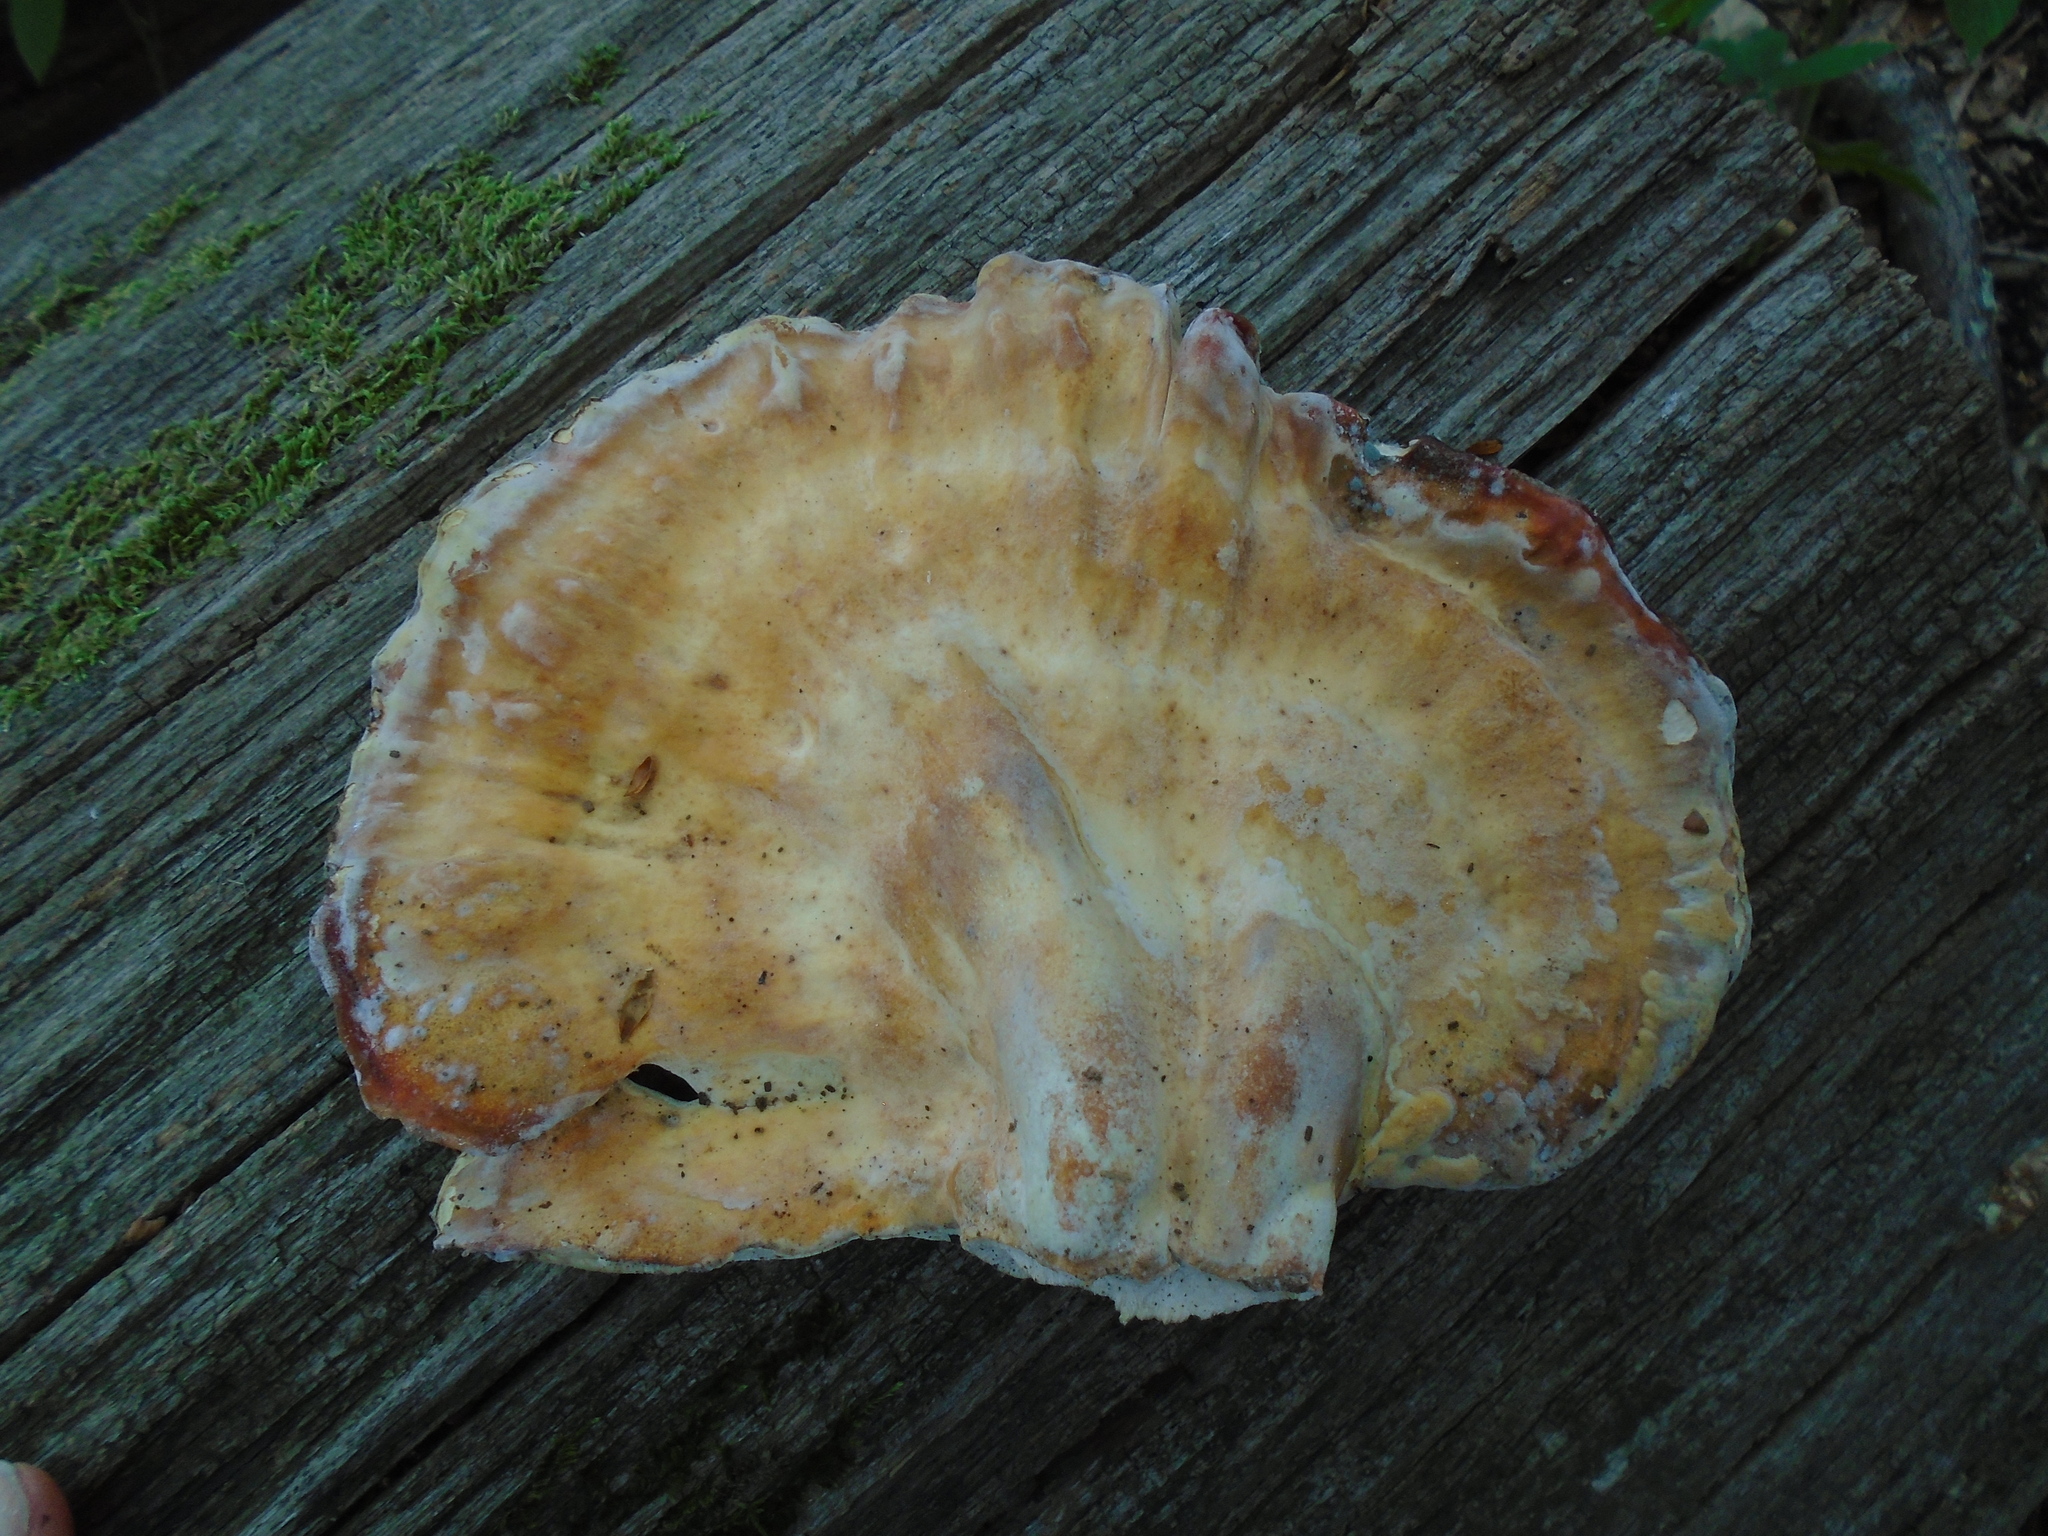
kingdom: Fungi
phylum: Basidiomycota
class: Agaricomycetes
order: Polyporales
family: Laetiporaceae
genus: Laetiporus
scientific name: Laetiporus sulphureus
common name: Chicken of the woods
